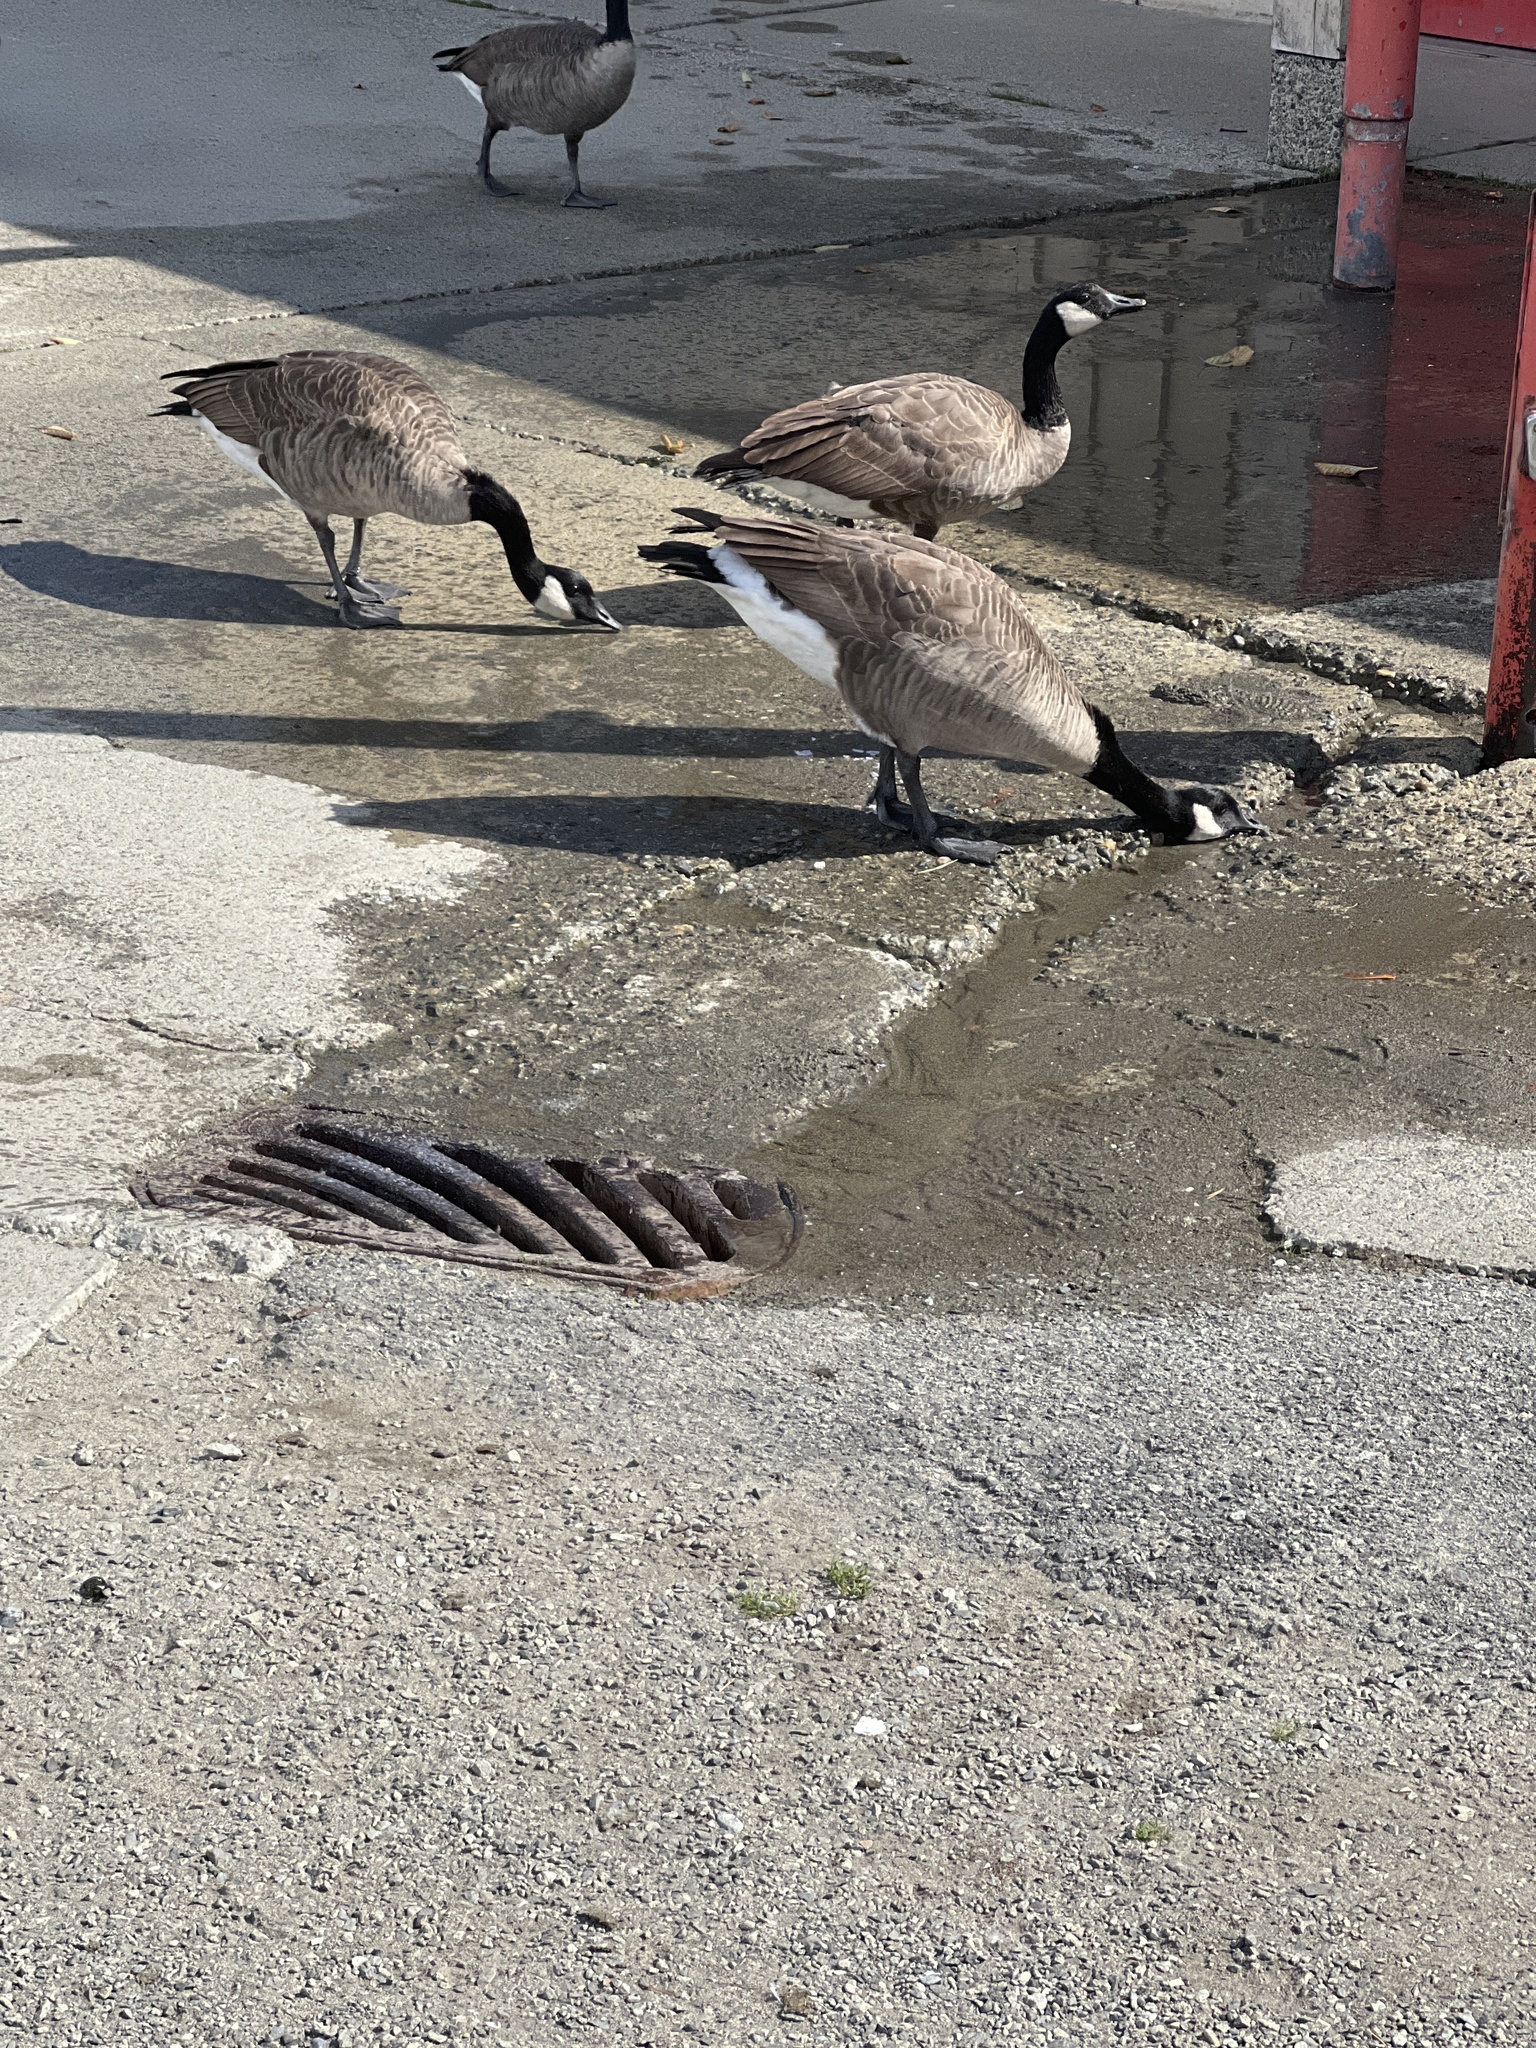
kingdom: Animalia
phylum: Chordata
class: Aves
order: Anseriformes
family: Anatidae
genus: Branta
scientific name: Branta canadensis
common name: Canada goose
